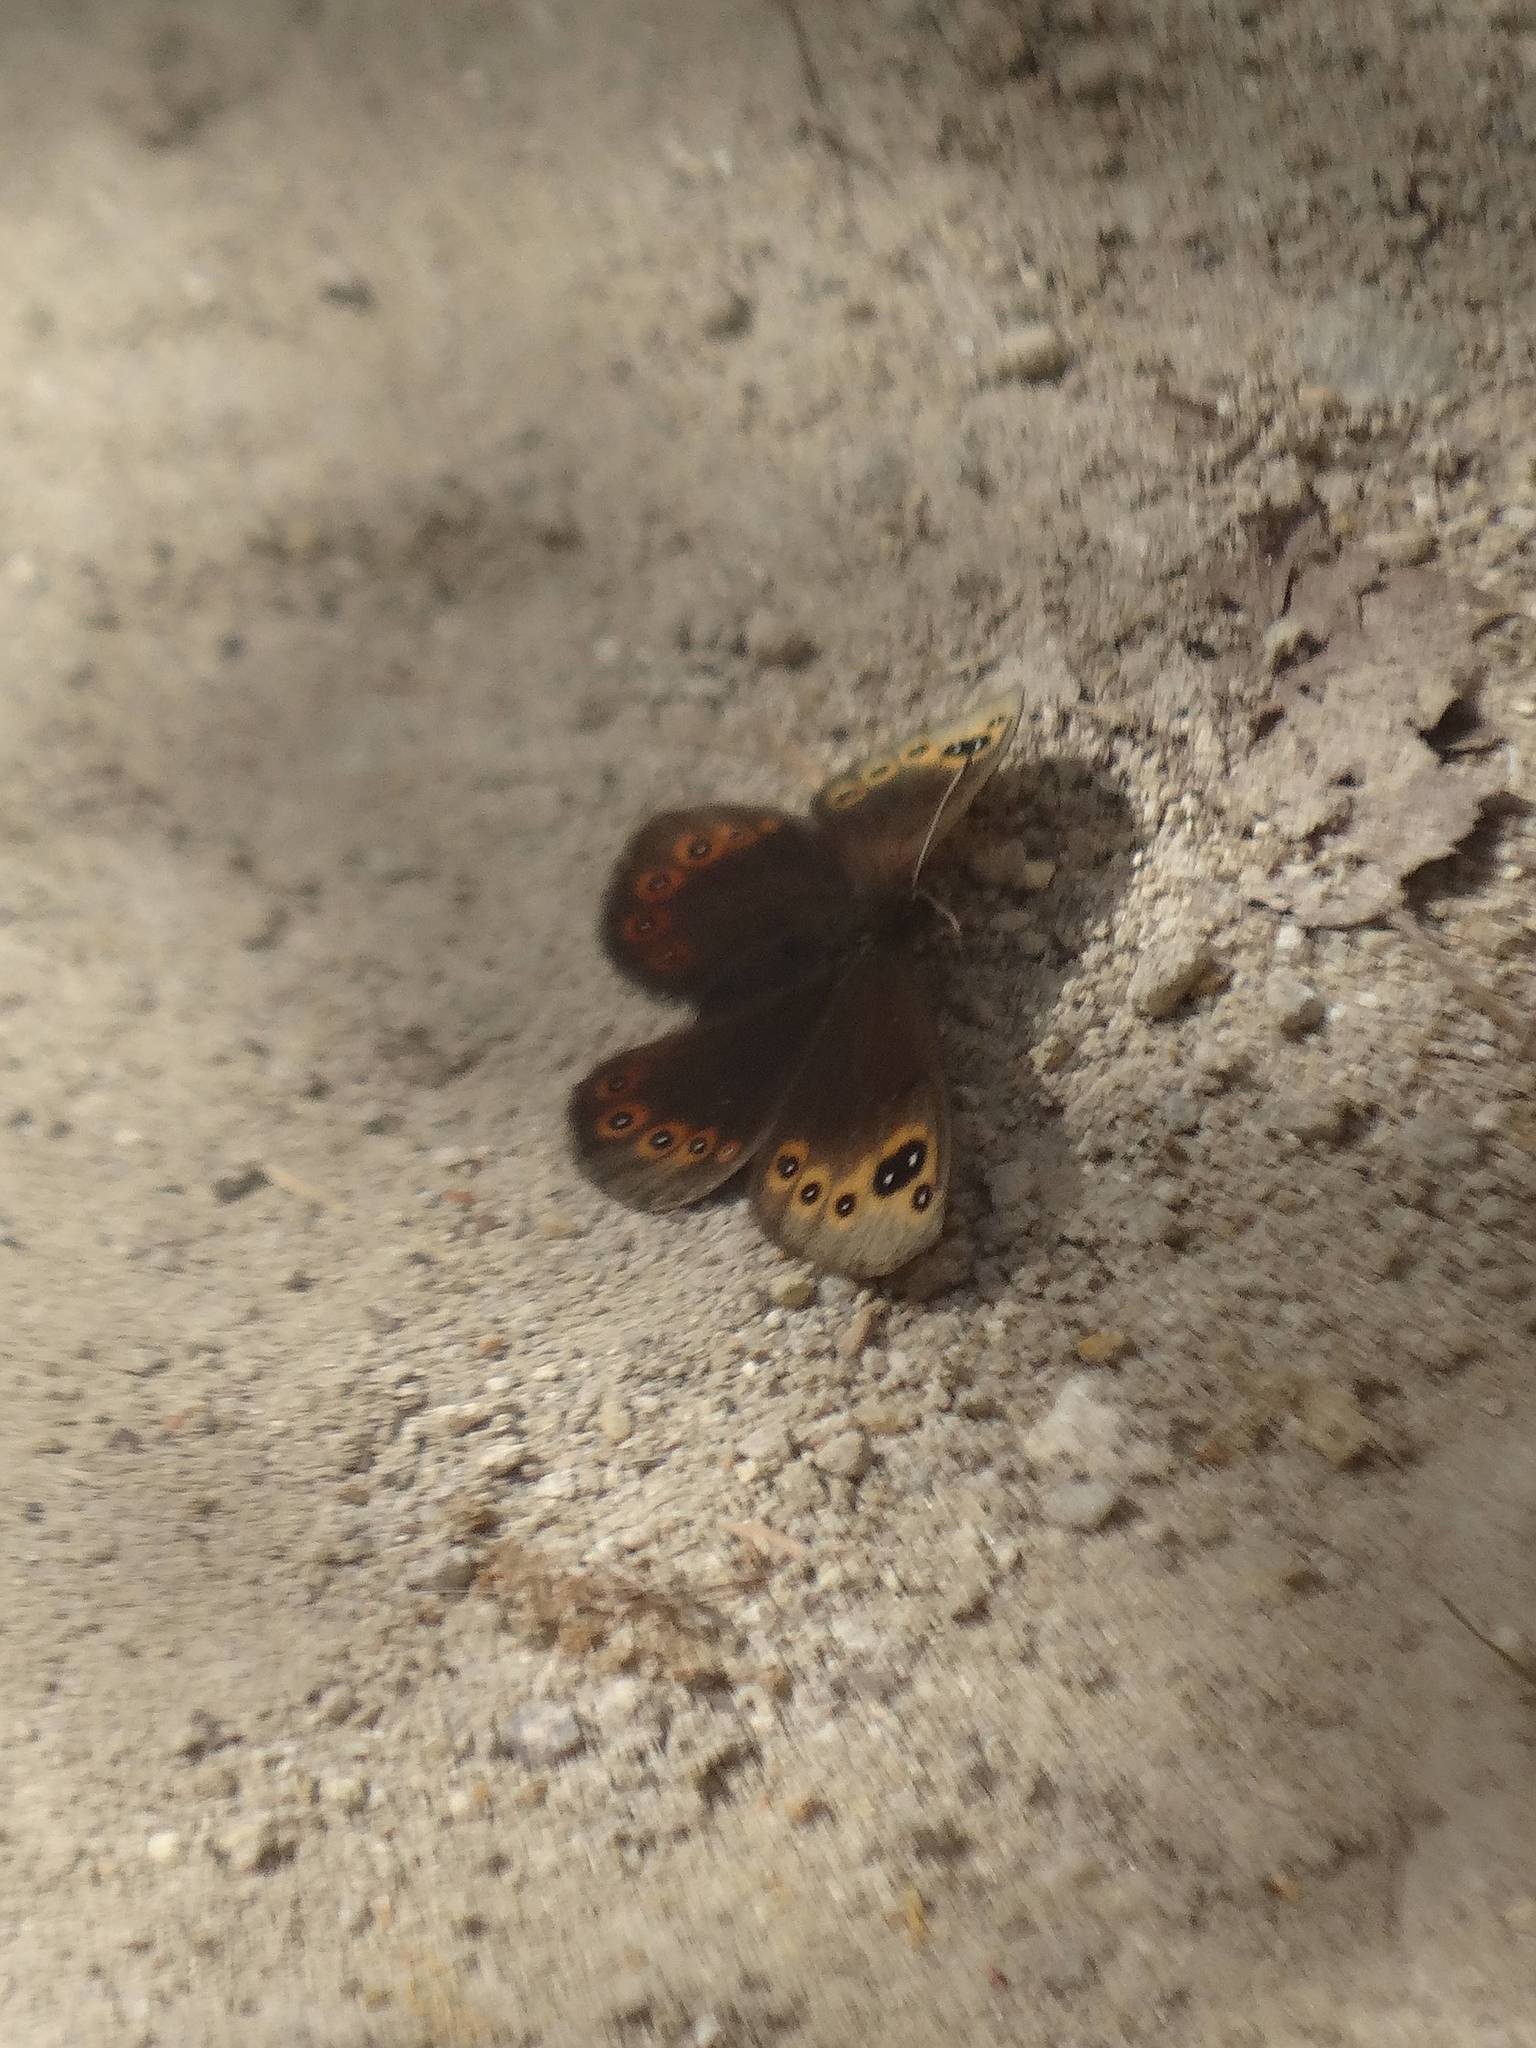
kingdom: Animalia
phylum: Arthropoda
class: Insecta
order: Lepidoptera
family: Nymphalidae
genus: Proterebia
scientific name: Proterebia afra
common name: Dalmatian ringlet
